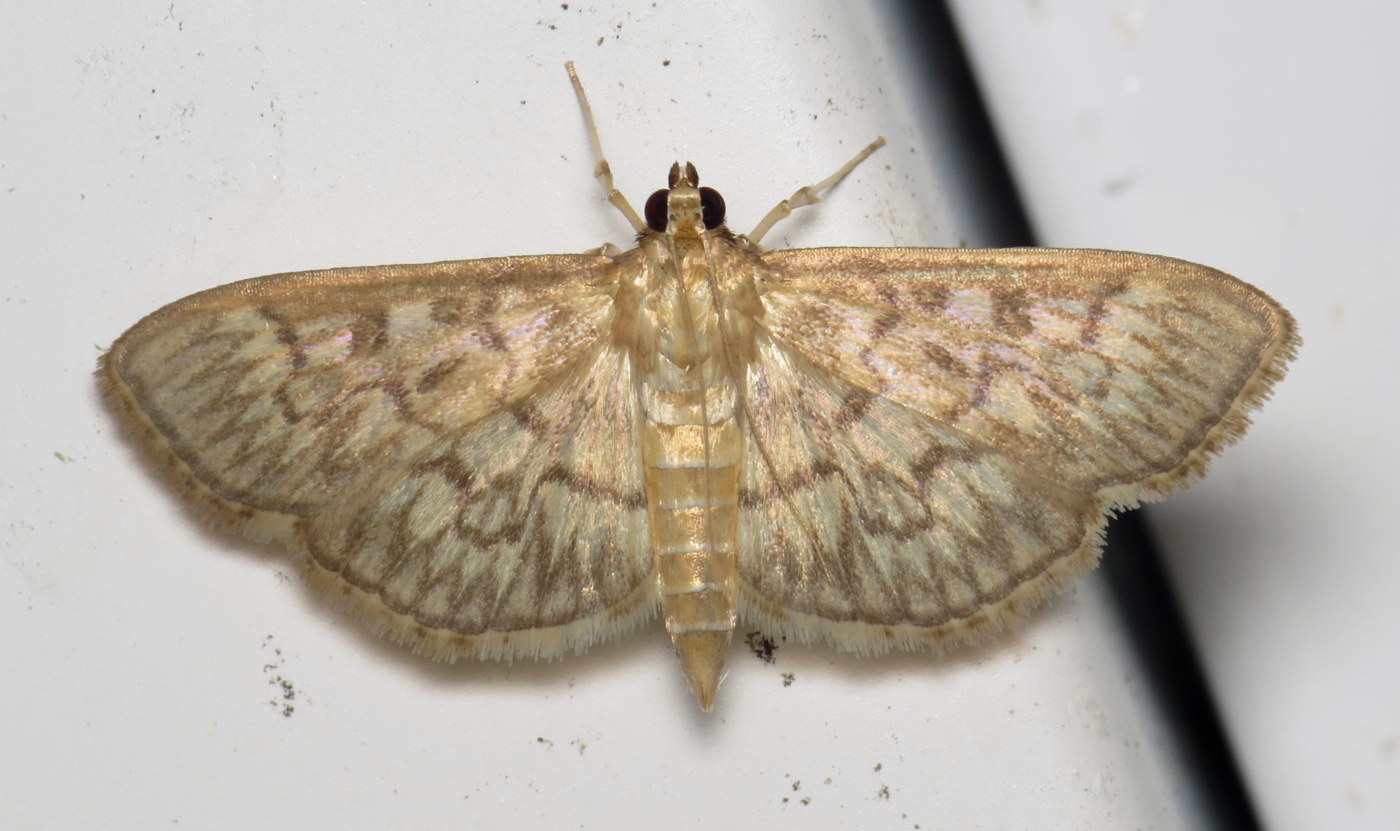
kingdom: Animalia
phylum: Arthropoda
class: Insecta
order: Lepidoptera
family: Crambidae
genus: Herpetogramma
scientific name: Herpetogramma pertextalis
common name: Bold-feathered grass moth
